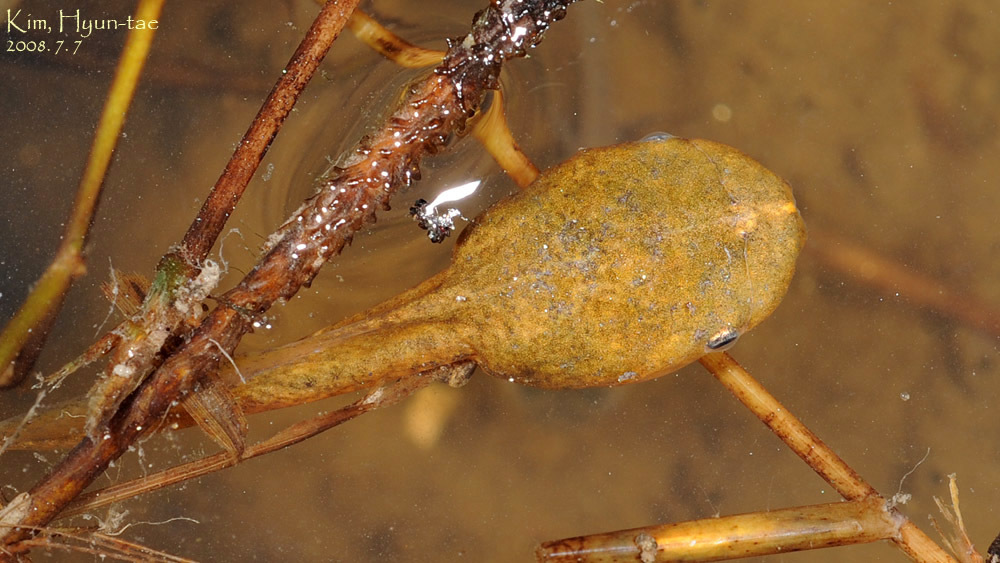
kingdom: Animalia
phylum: Chordata
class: Amphibia
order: Anura
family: Microhylidae
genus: Kaloula
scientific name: Kaloula borealis
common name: Boreal digging frog
